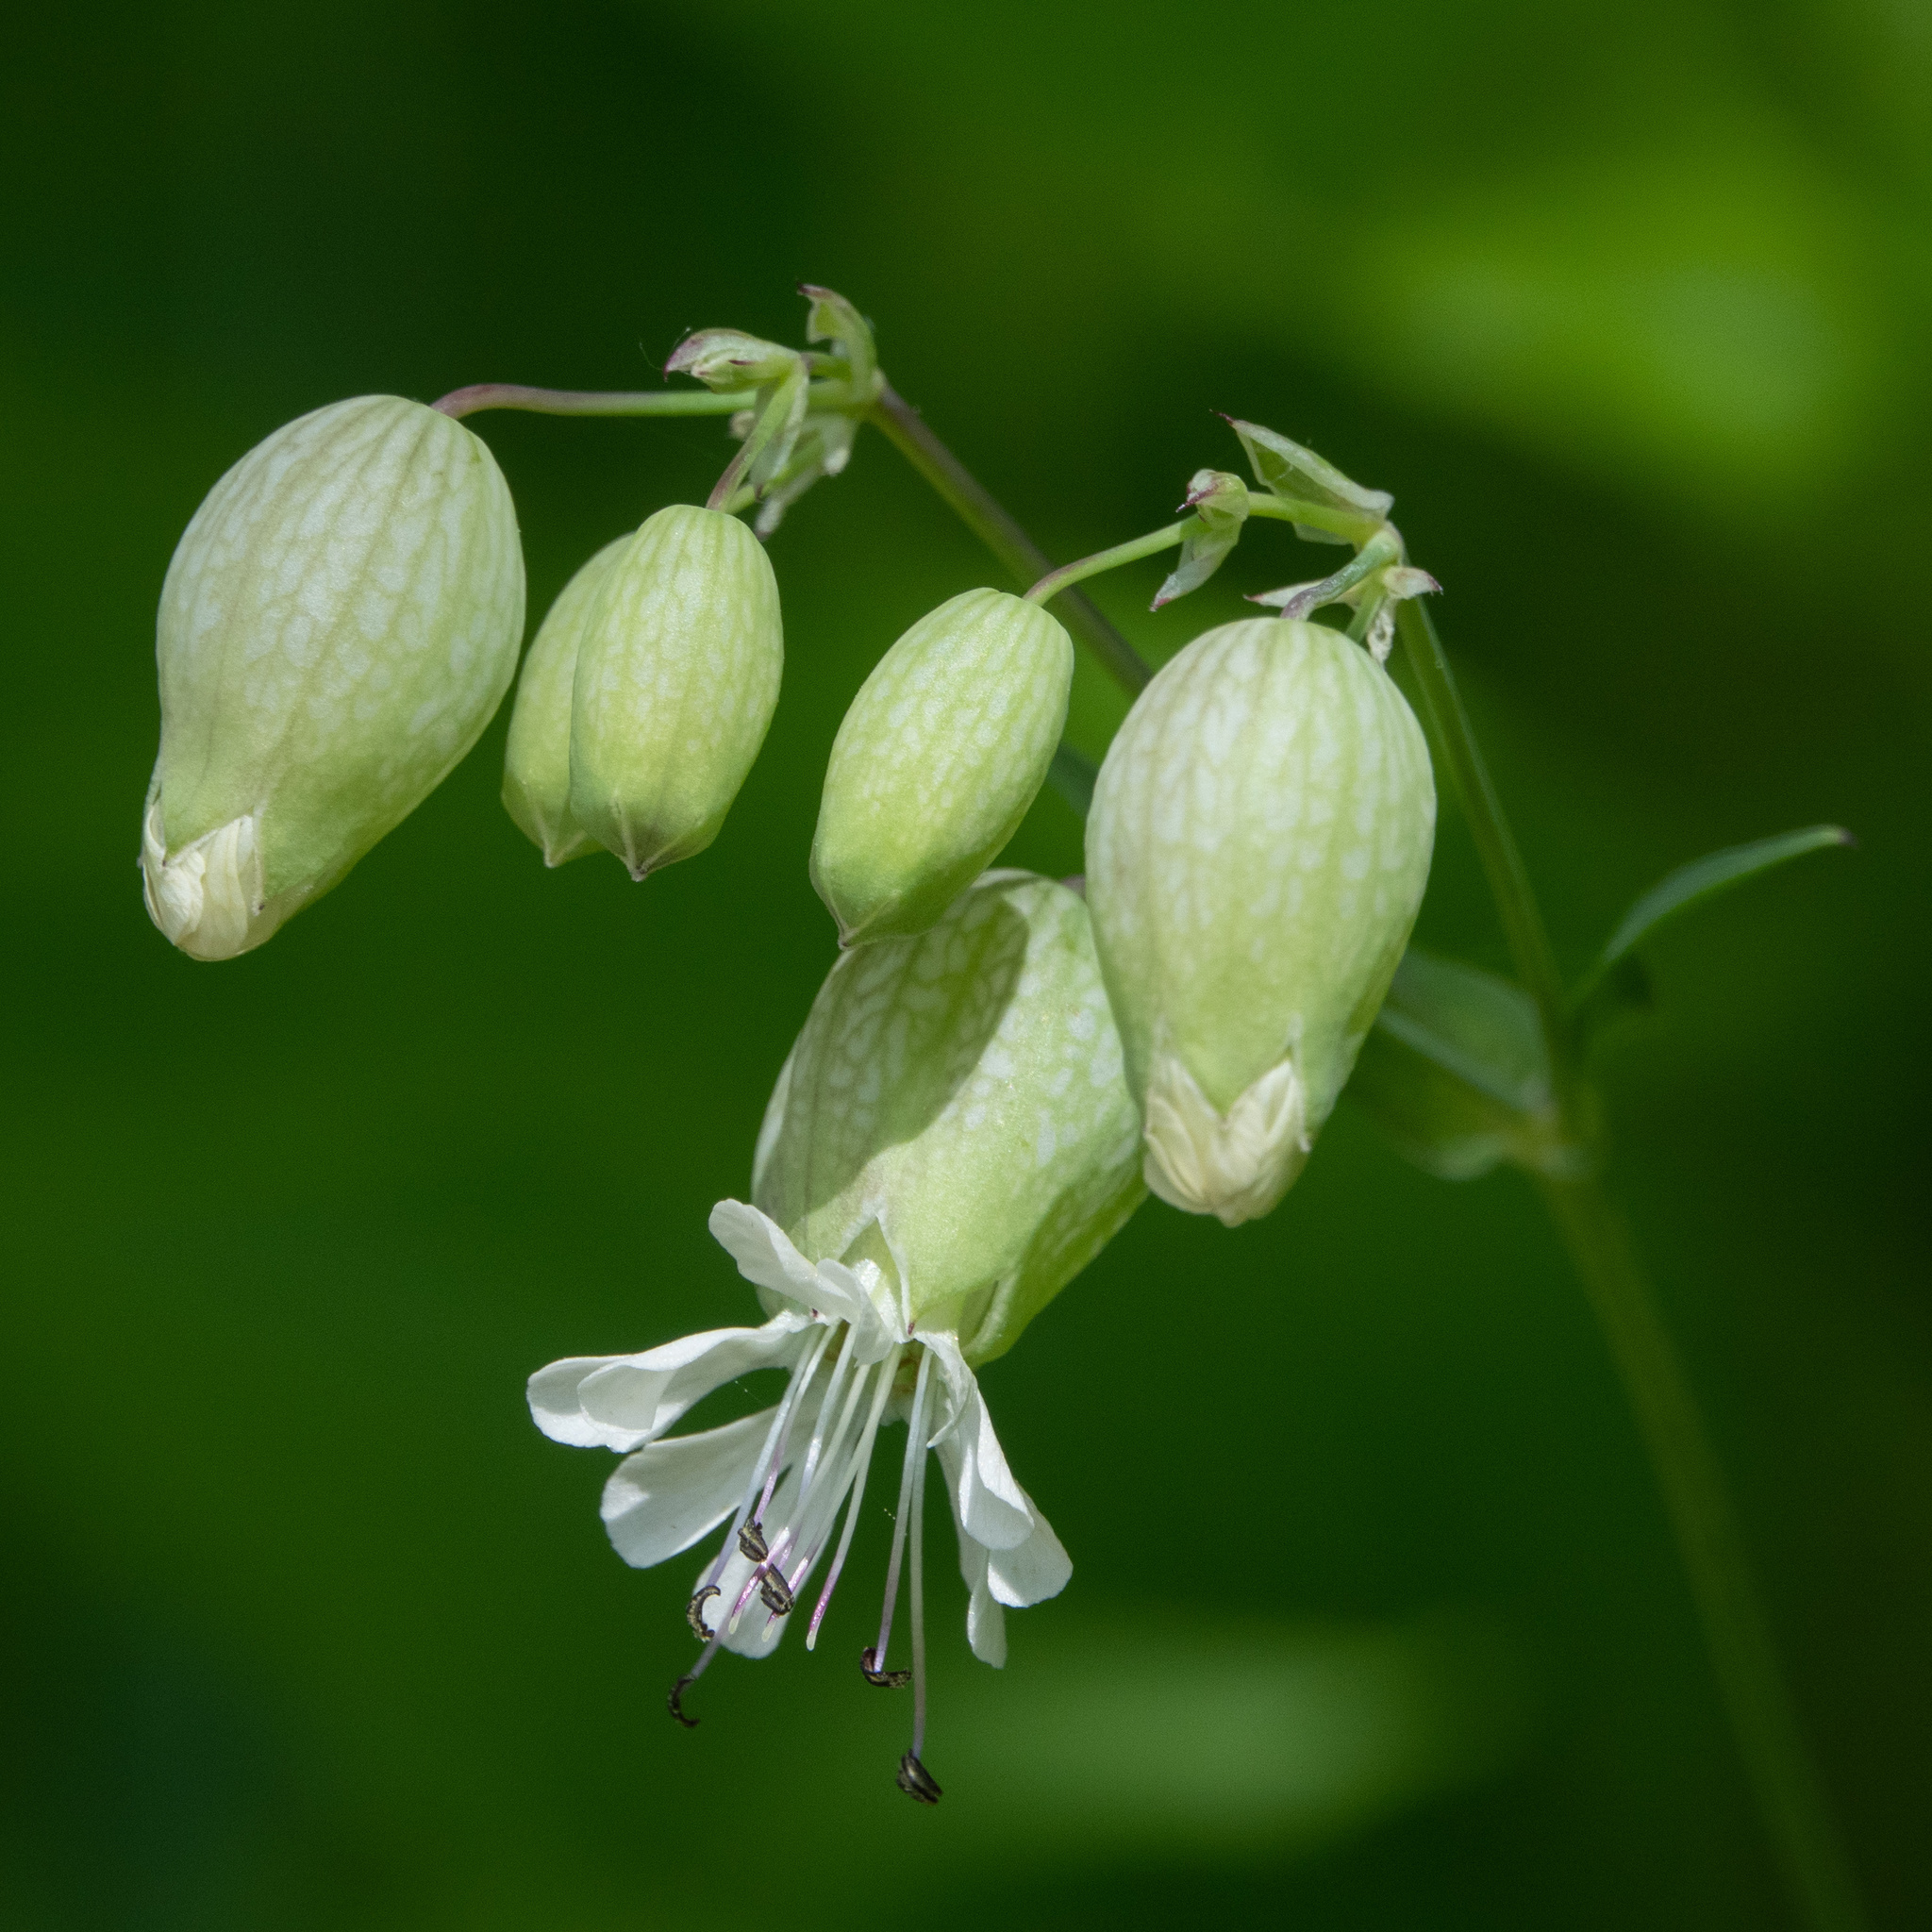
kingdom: Plantae
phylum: Tracheophyta
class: Magnoliopsida
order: Caryophyllales
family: Caryophyllaceae
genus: Silene
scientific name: Silene vulgaris
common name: Bladder campion
